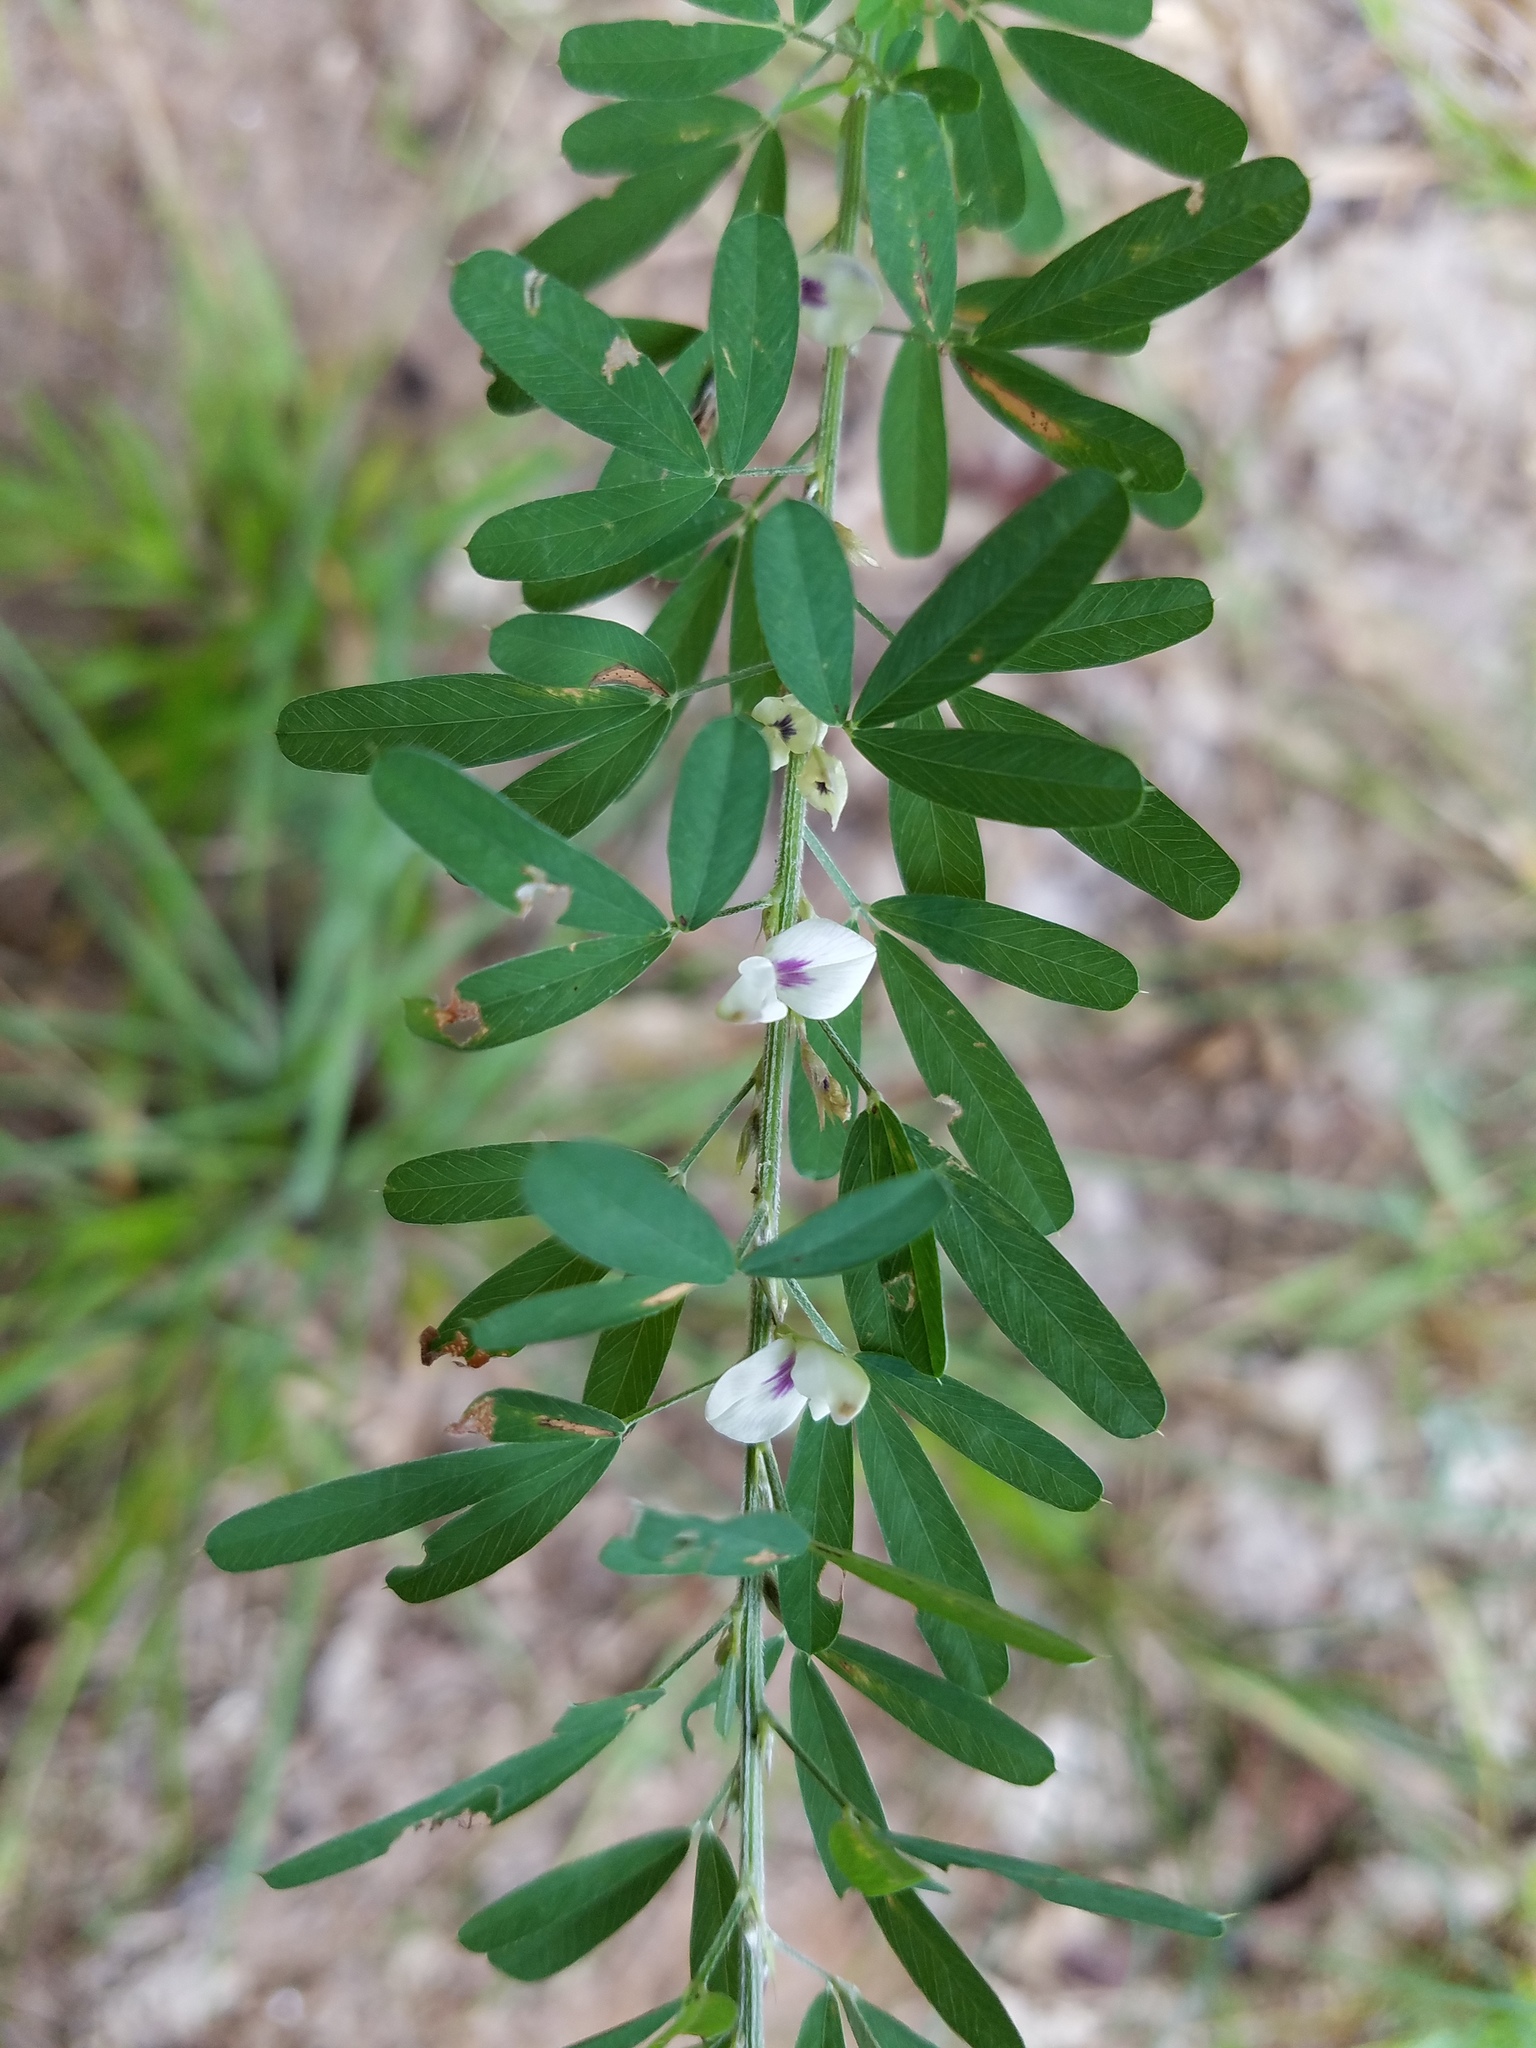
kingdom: Plantae
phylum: Tracheophyta
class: Magnoliopsida
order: Fabales
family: Fabaceae
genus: Lespedeza
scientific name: Lespedeza cuneata
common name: Chinese bush-clover
